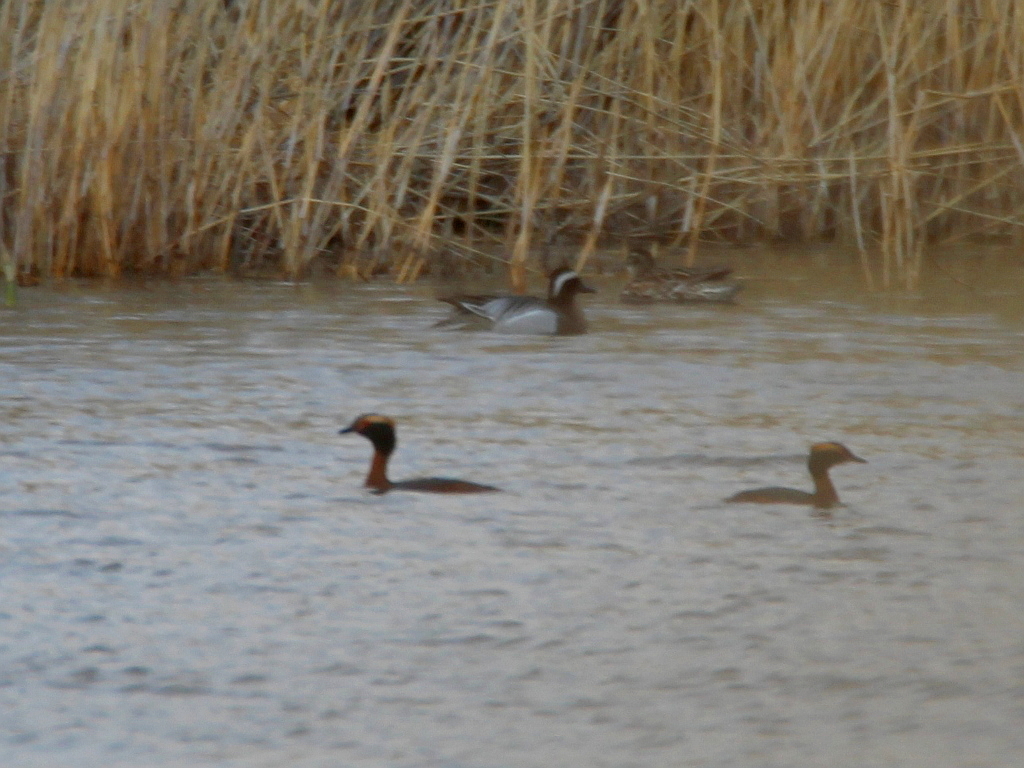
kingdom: Animalia
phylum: Chordata
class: Aves
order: Podicipediformes
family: Podicipedidae
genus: Podiceps
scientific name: Podiceps auritus
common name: Horned grebe
